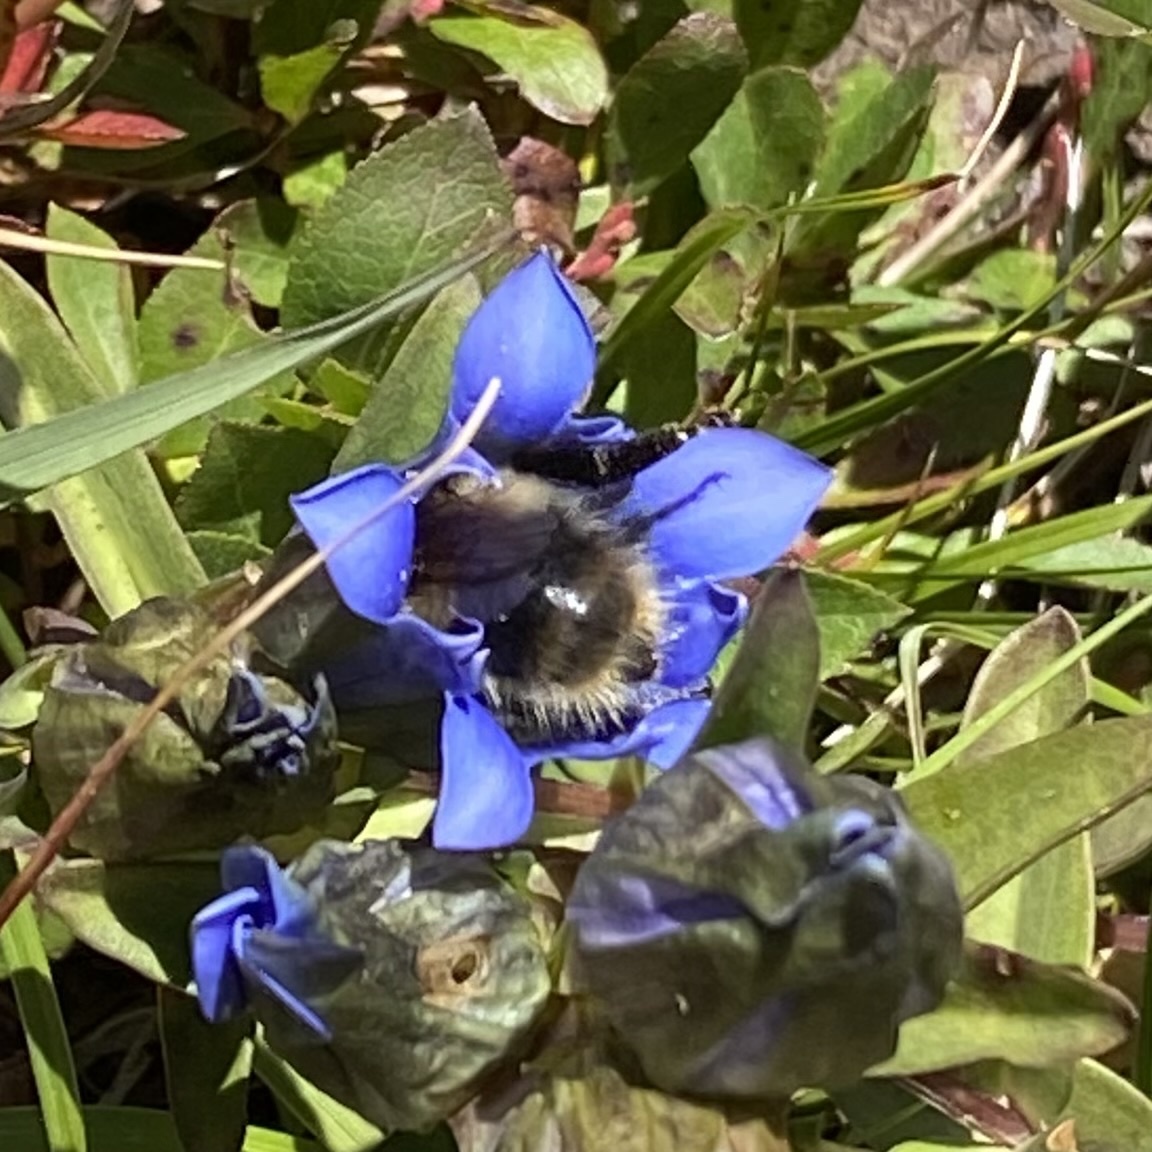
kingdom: Animalia
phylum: Arthropoda
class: Insecta
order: Hymenoptera
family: Apidae
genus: Bombus
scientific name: Bombus kirbiellus
